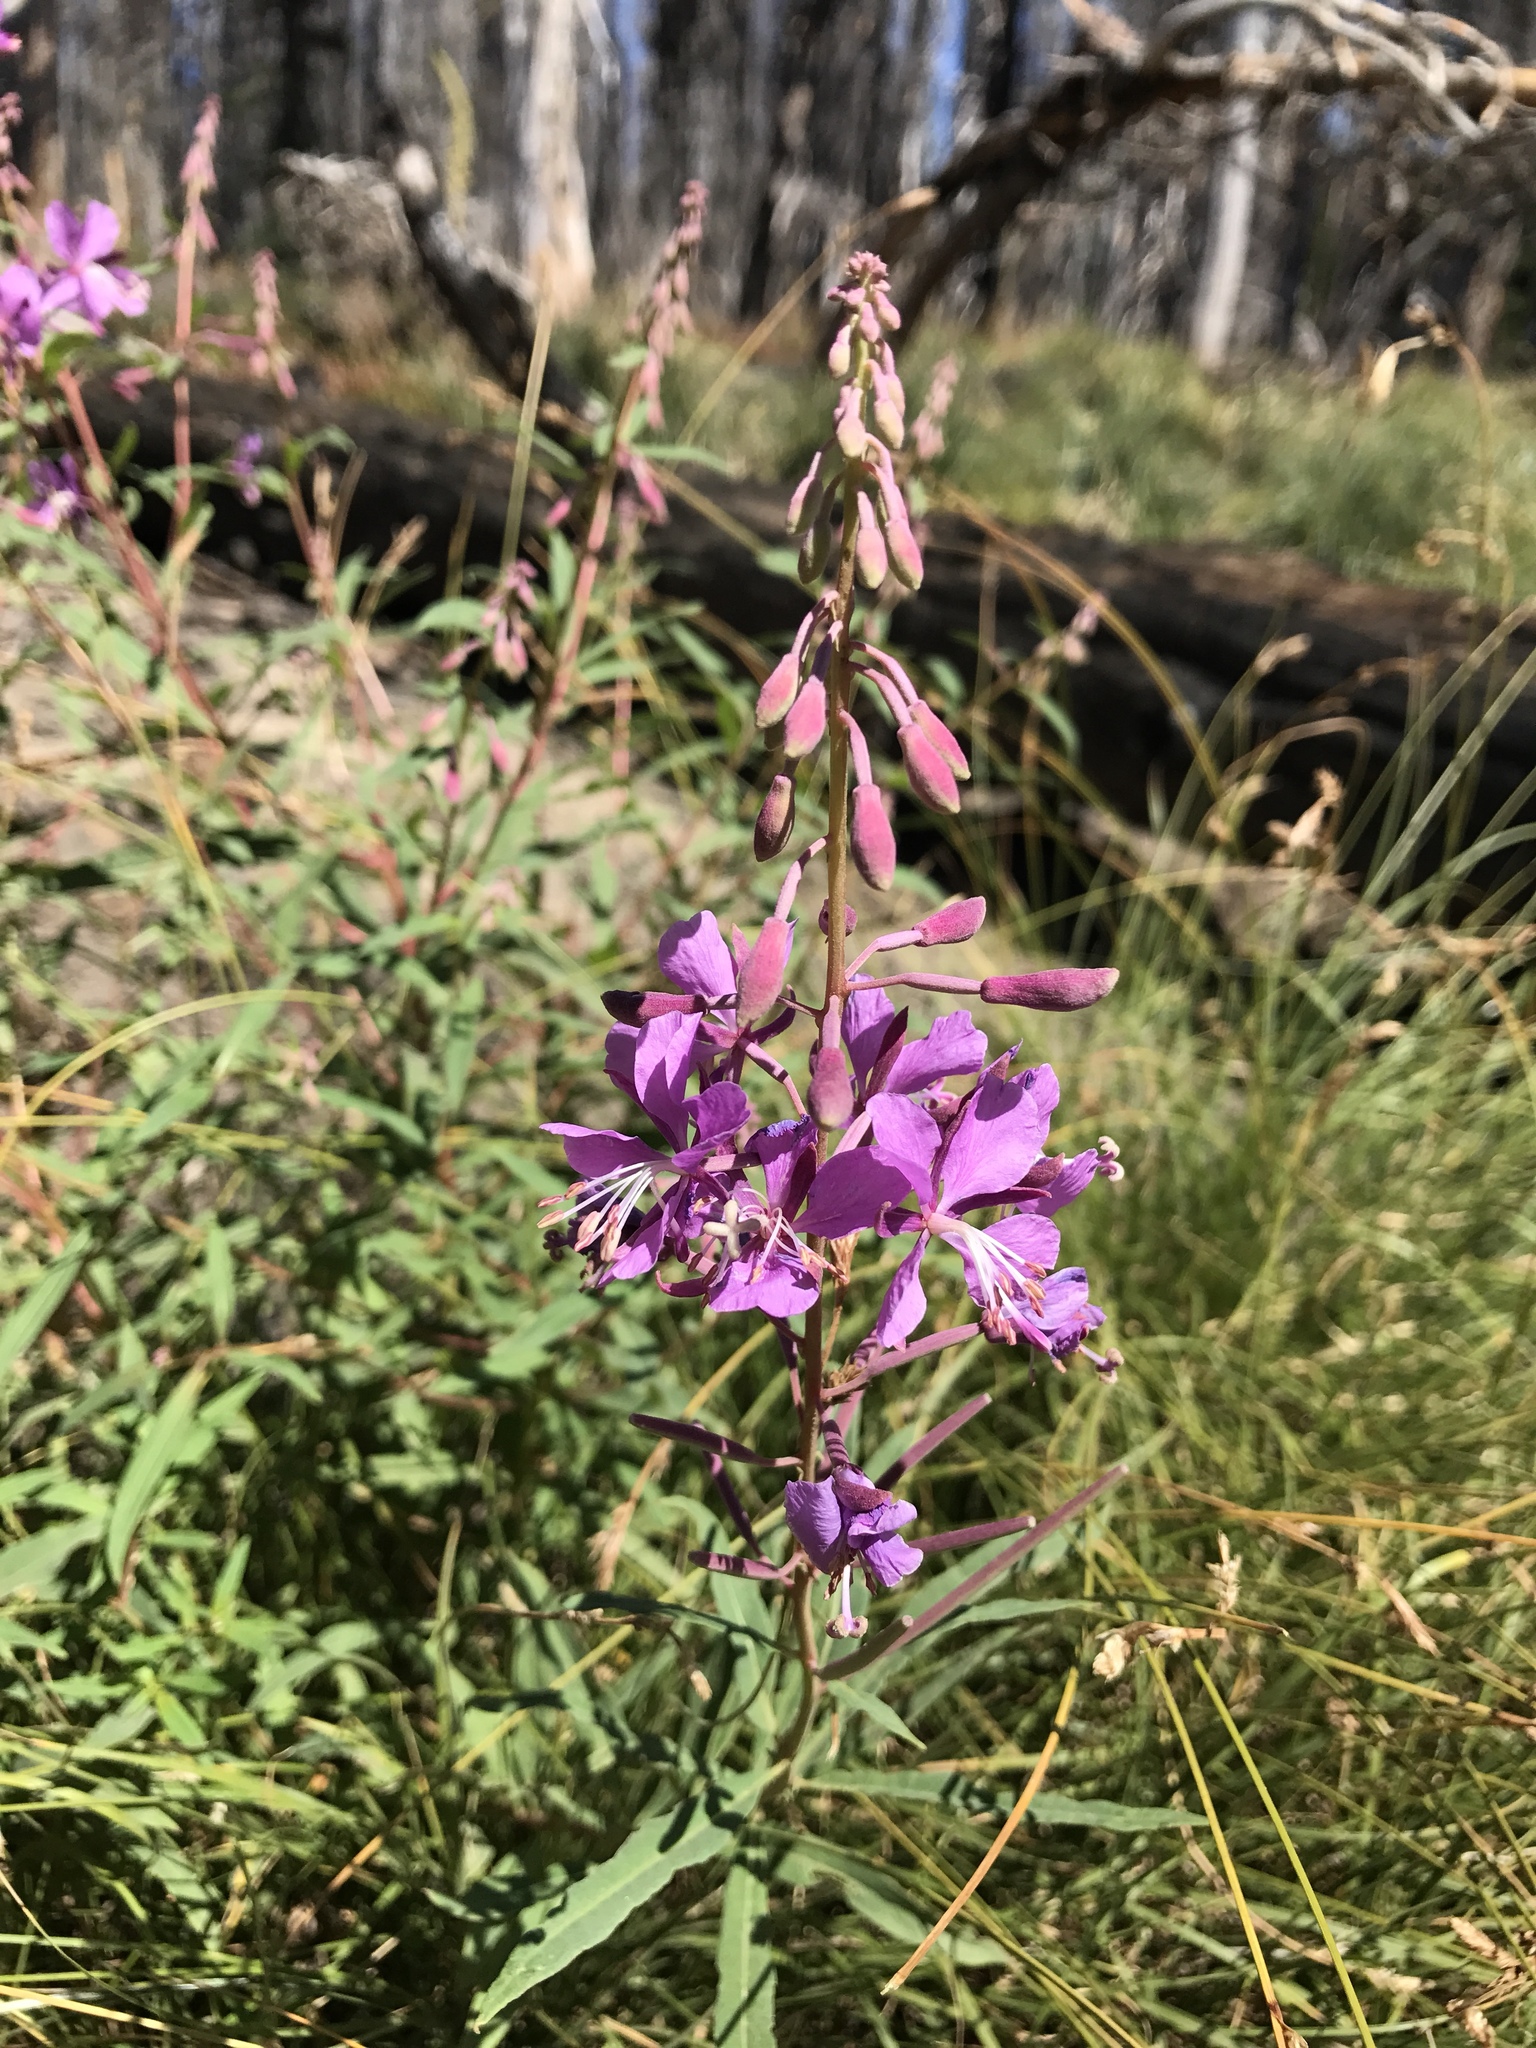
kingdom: Plantae
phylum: Tracheophyta
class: Magnoliopsida
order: Myrtales
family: Onagraceae
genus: Chamaenerion
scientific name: Chamaenerion angustifolium
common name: Fireweed
